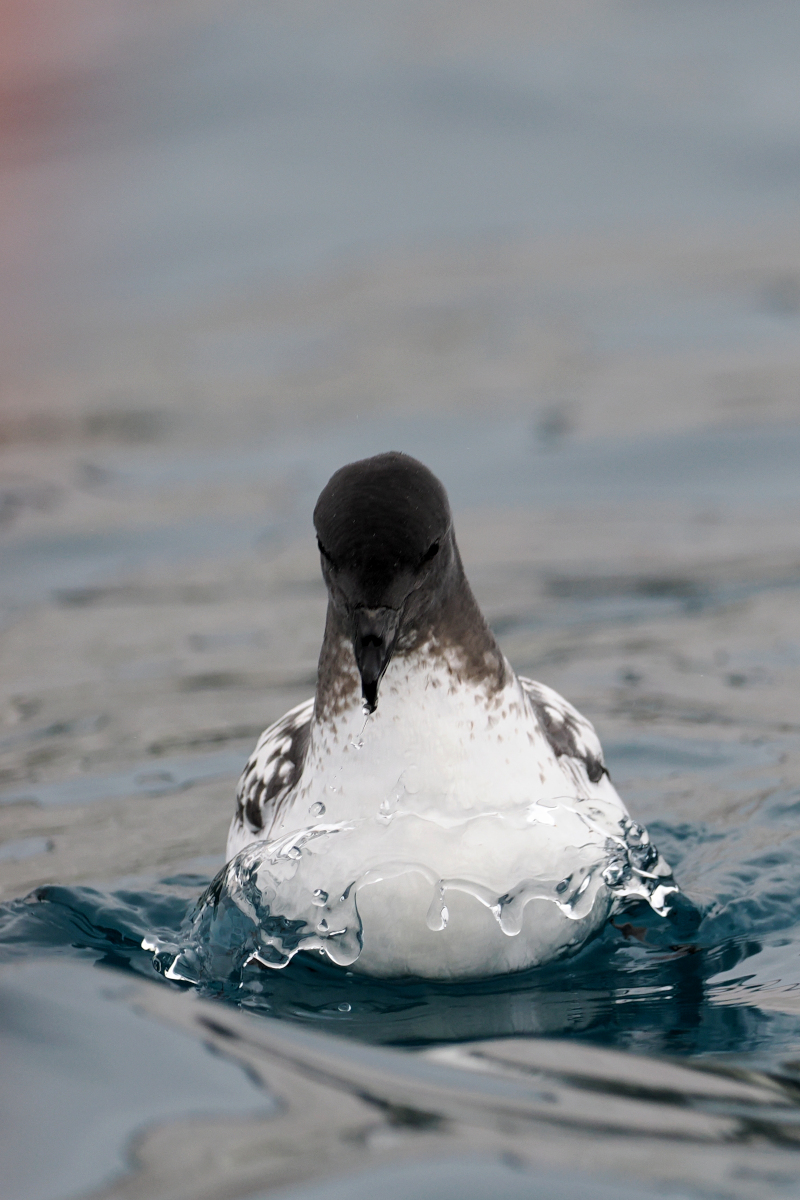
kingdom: Animalia
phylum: Chordata
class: Aves
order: Procellariiformes
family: Procellariidae
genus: Daption
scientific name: Daption capense
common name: Cape petrel
